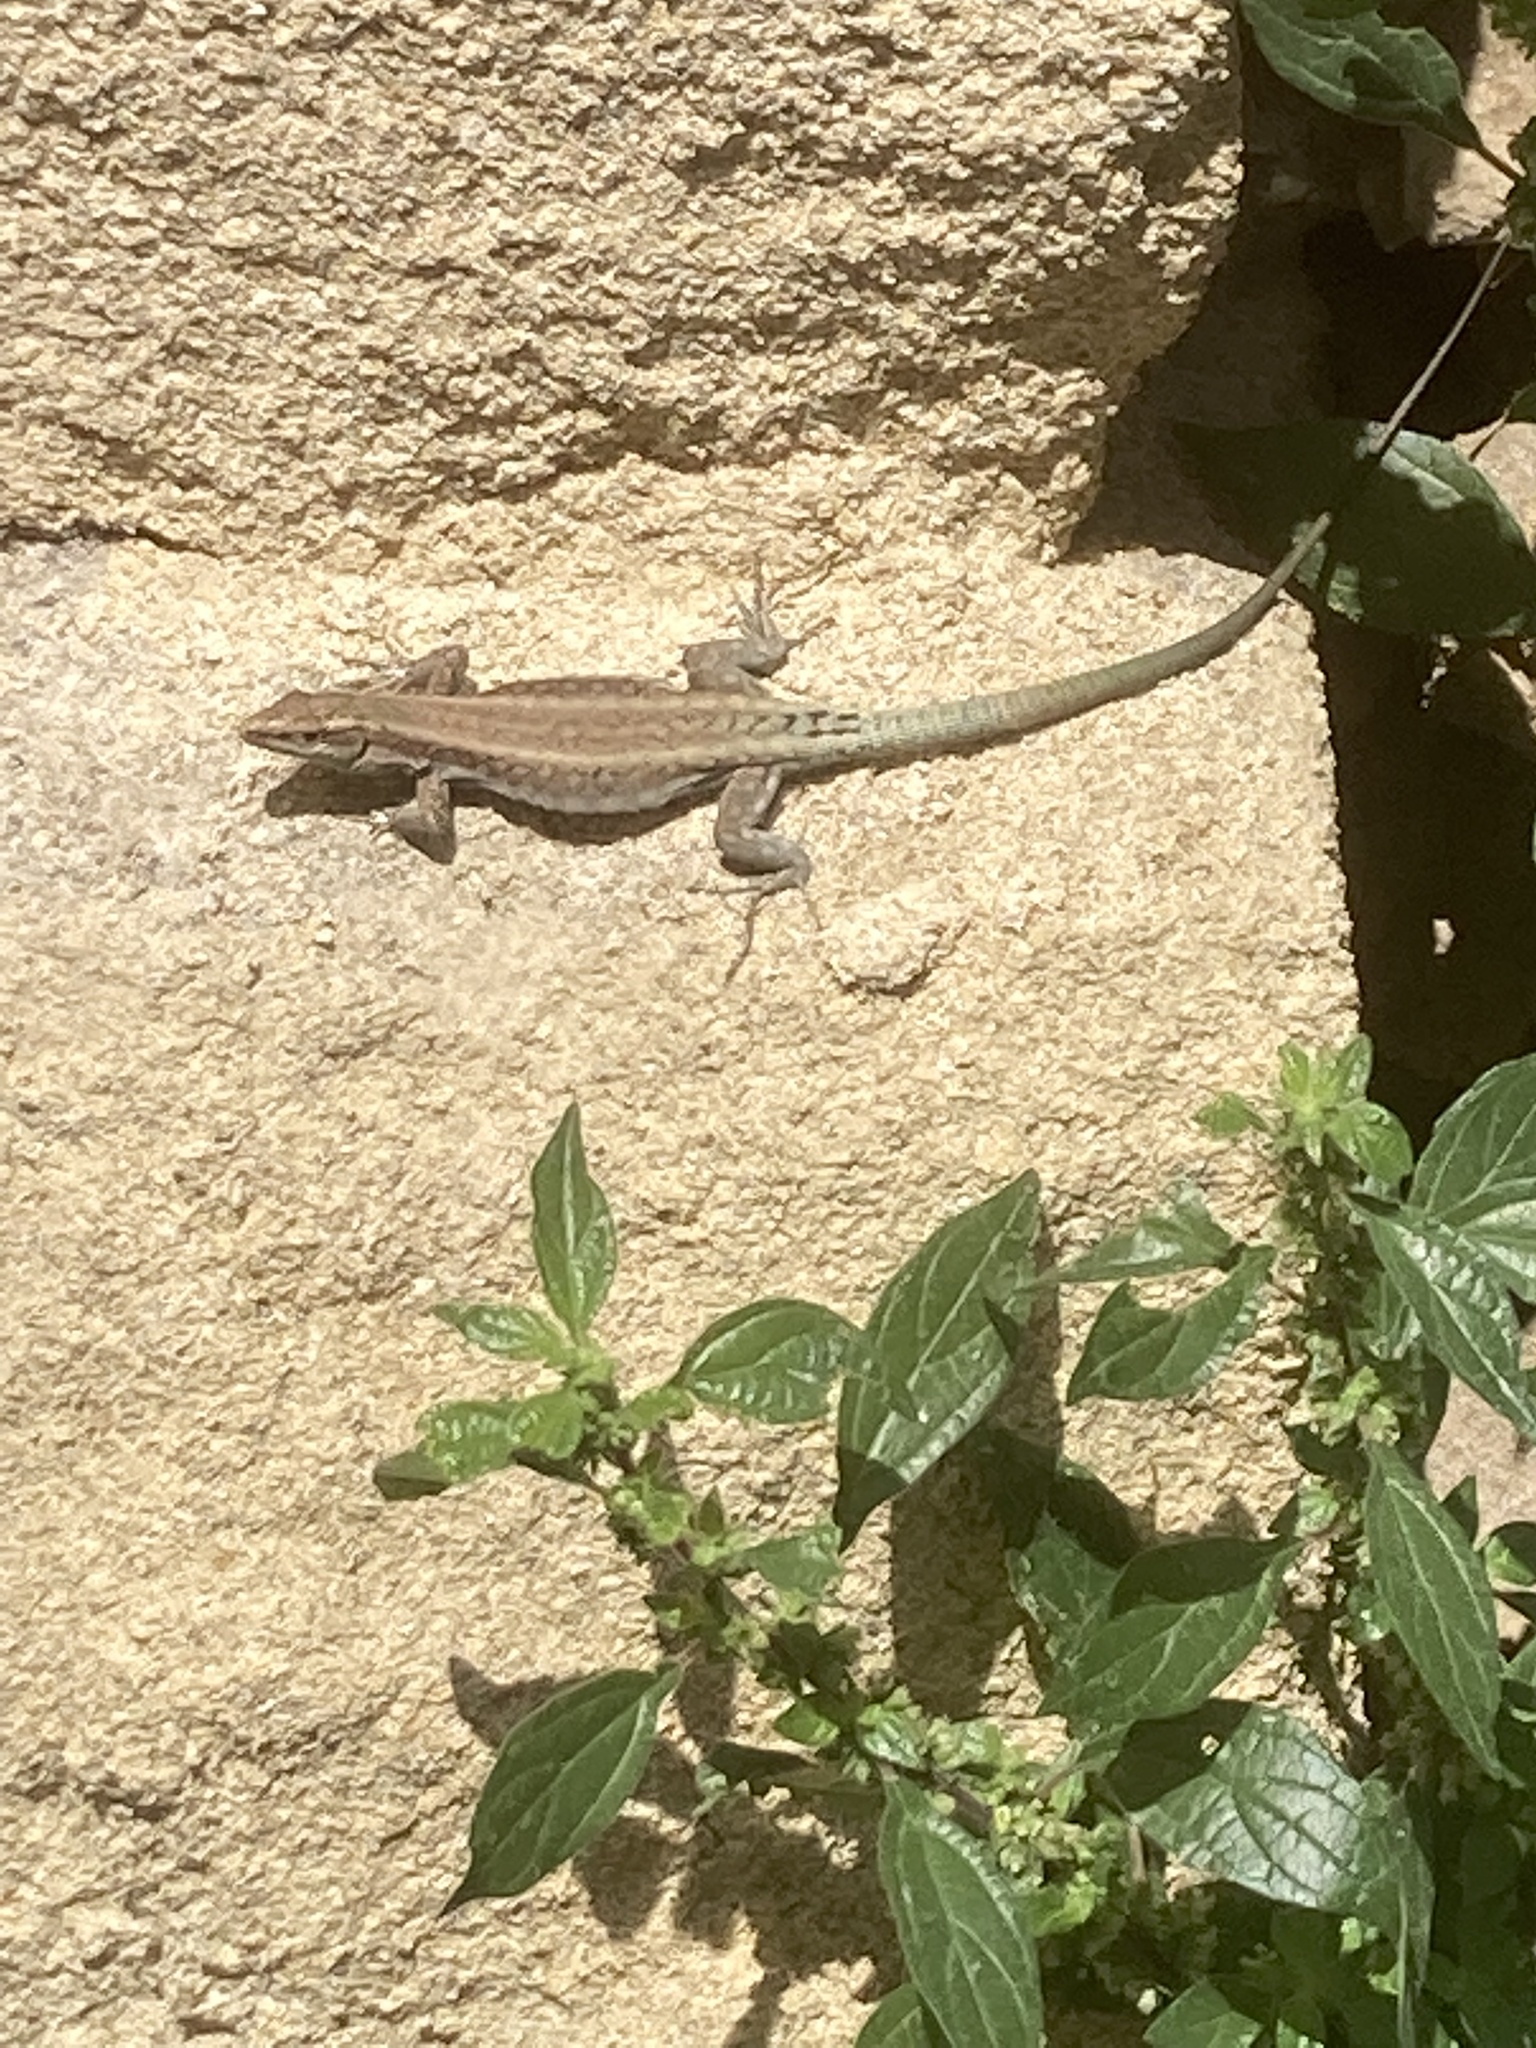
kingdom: Animalia
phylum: Chordata
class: Squamata
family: Lacertidae
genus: Anatololacerta
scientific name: Anatololacerta pelasgiana
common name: Pelasgian rock lizard
